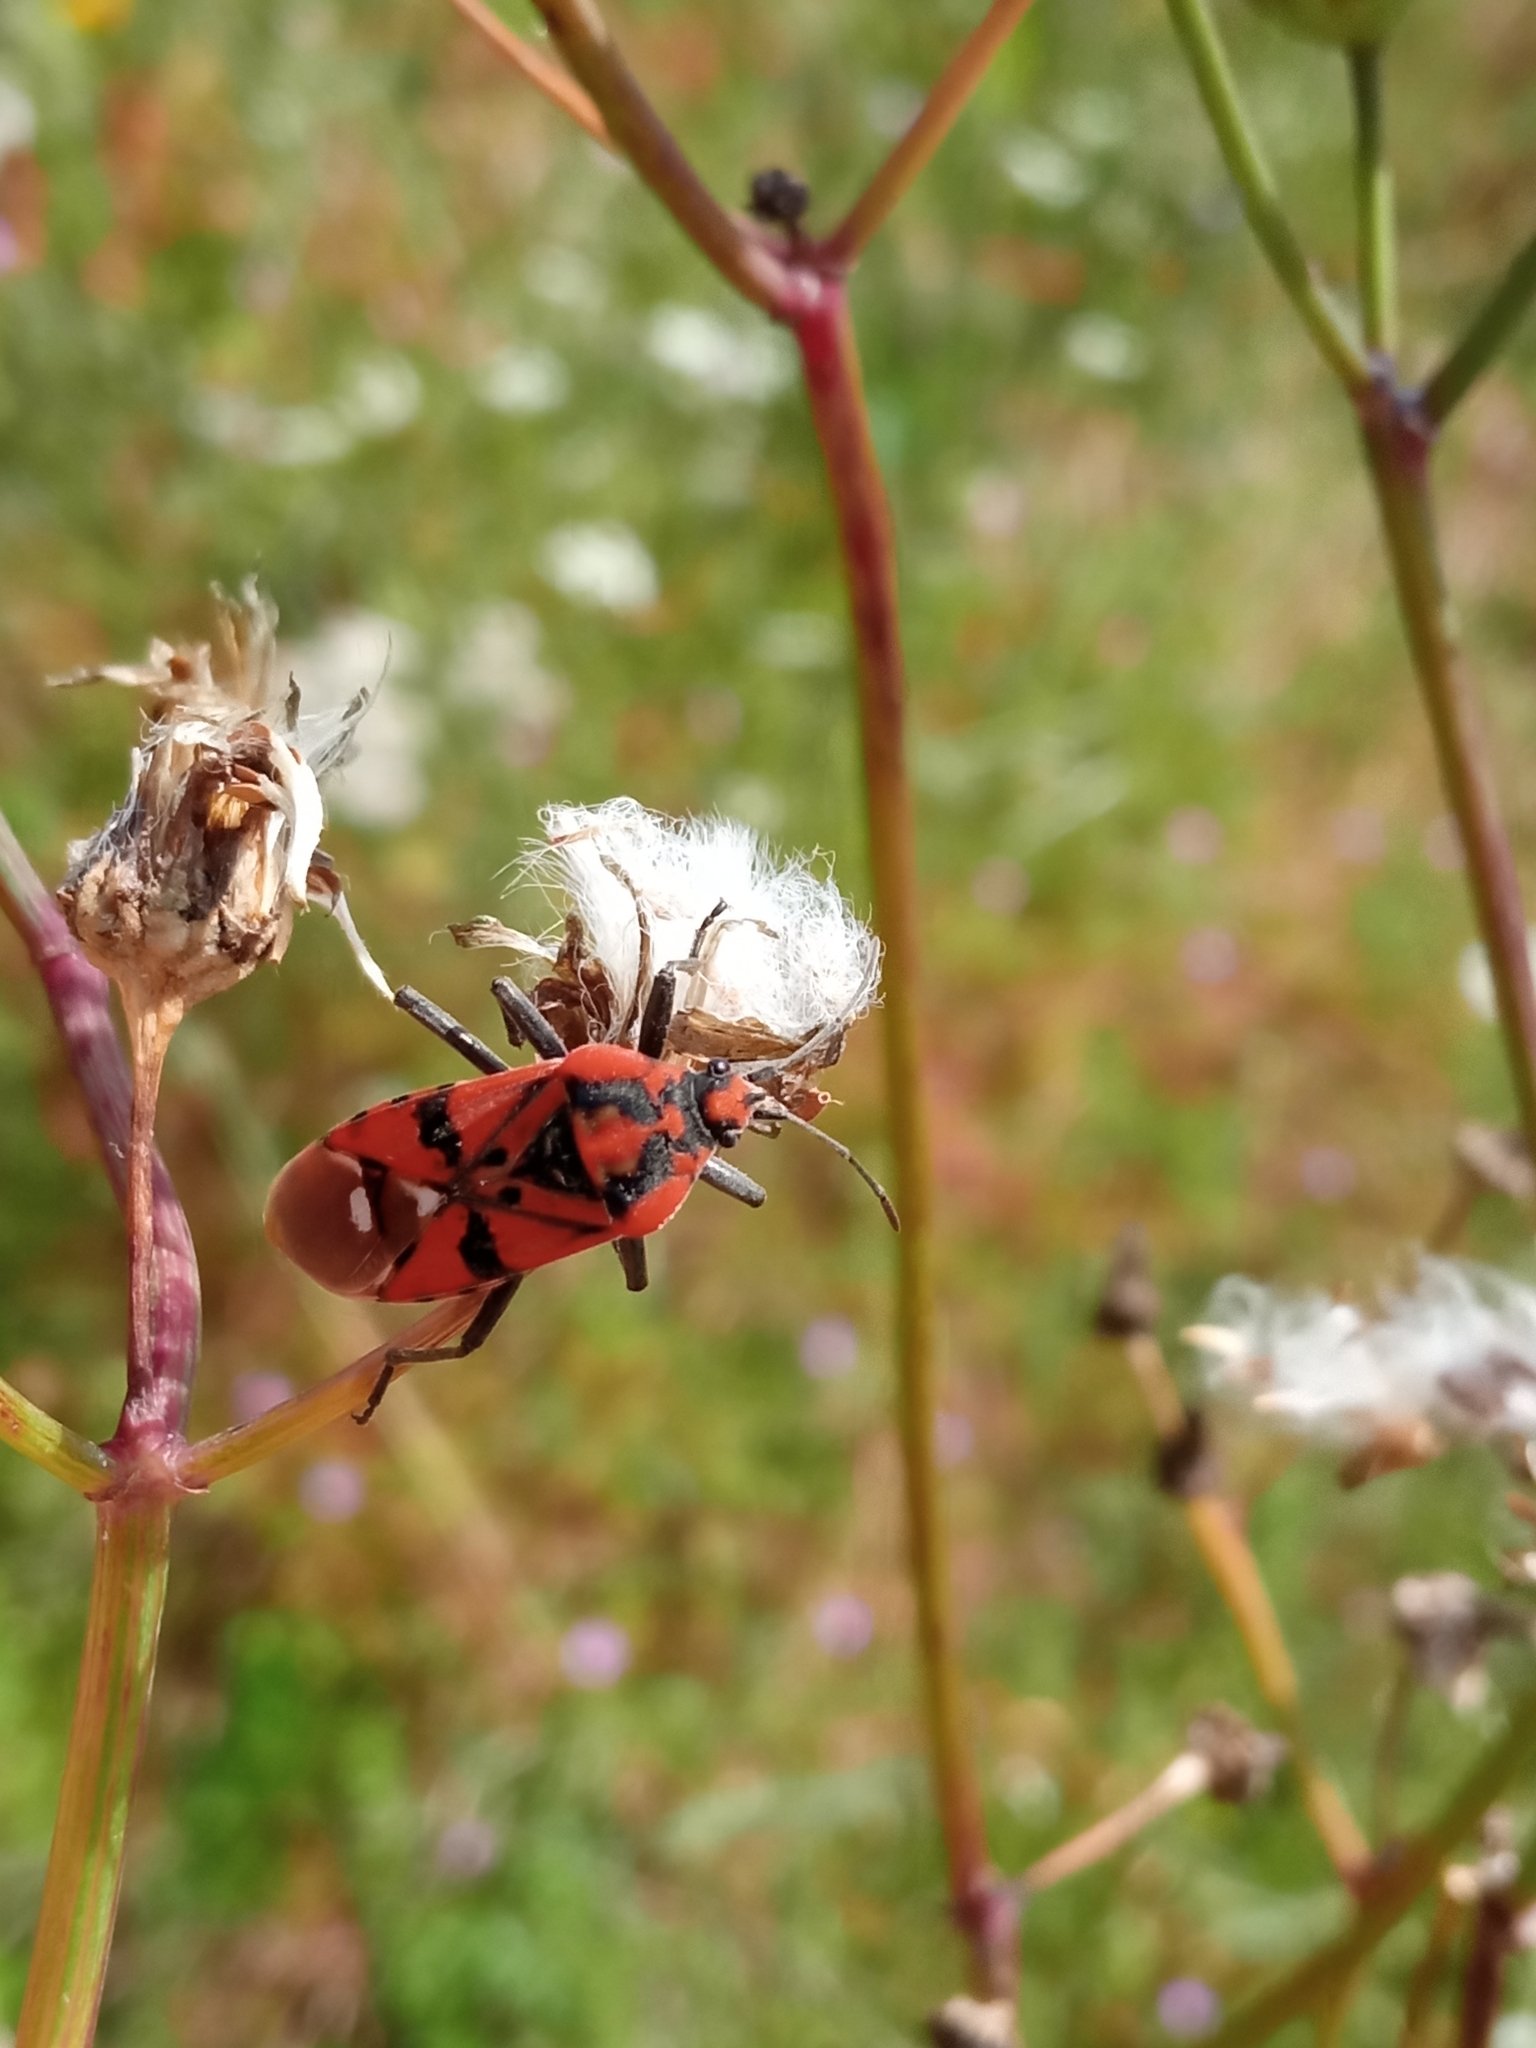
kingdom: Animalia
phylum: Arthropoda
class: Insecta
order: Hemiptera
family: Lygaeidae
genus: Spilostethus
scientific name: Spilostethus pandurus
